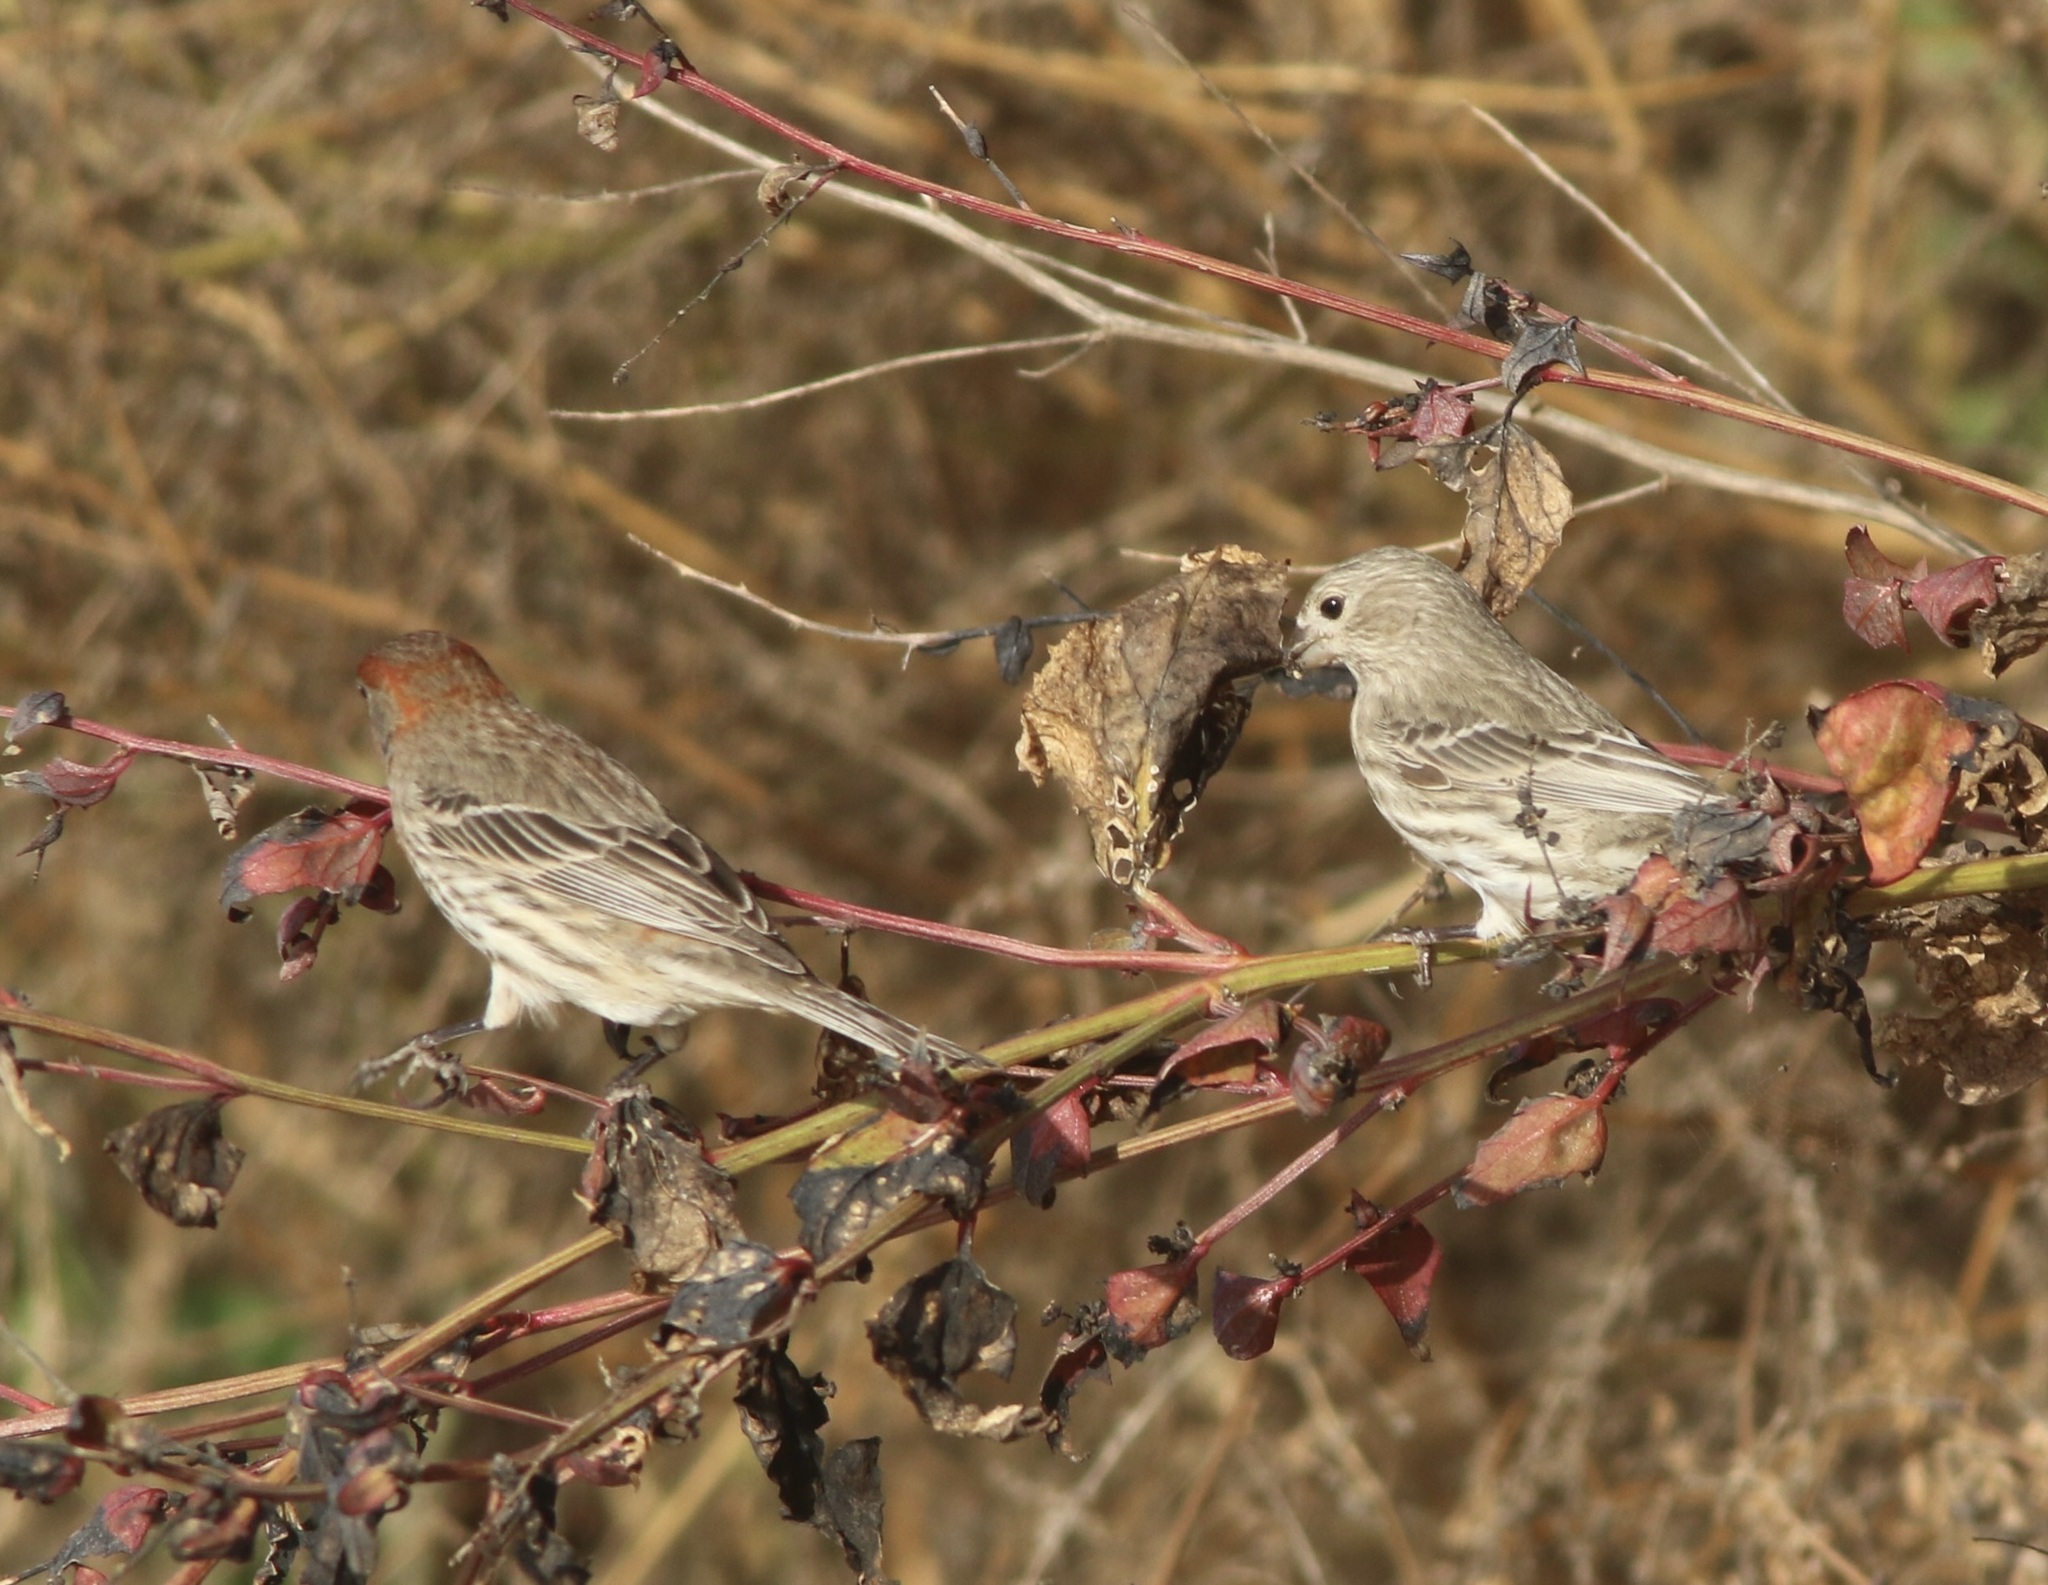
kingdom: Animalia
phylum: Chordata
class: Aves
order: Passeriformes
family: Fringillidae
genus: Haemorhous
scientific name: Haemorhous mexicanus
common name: House finch
